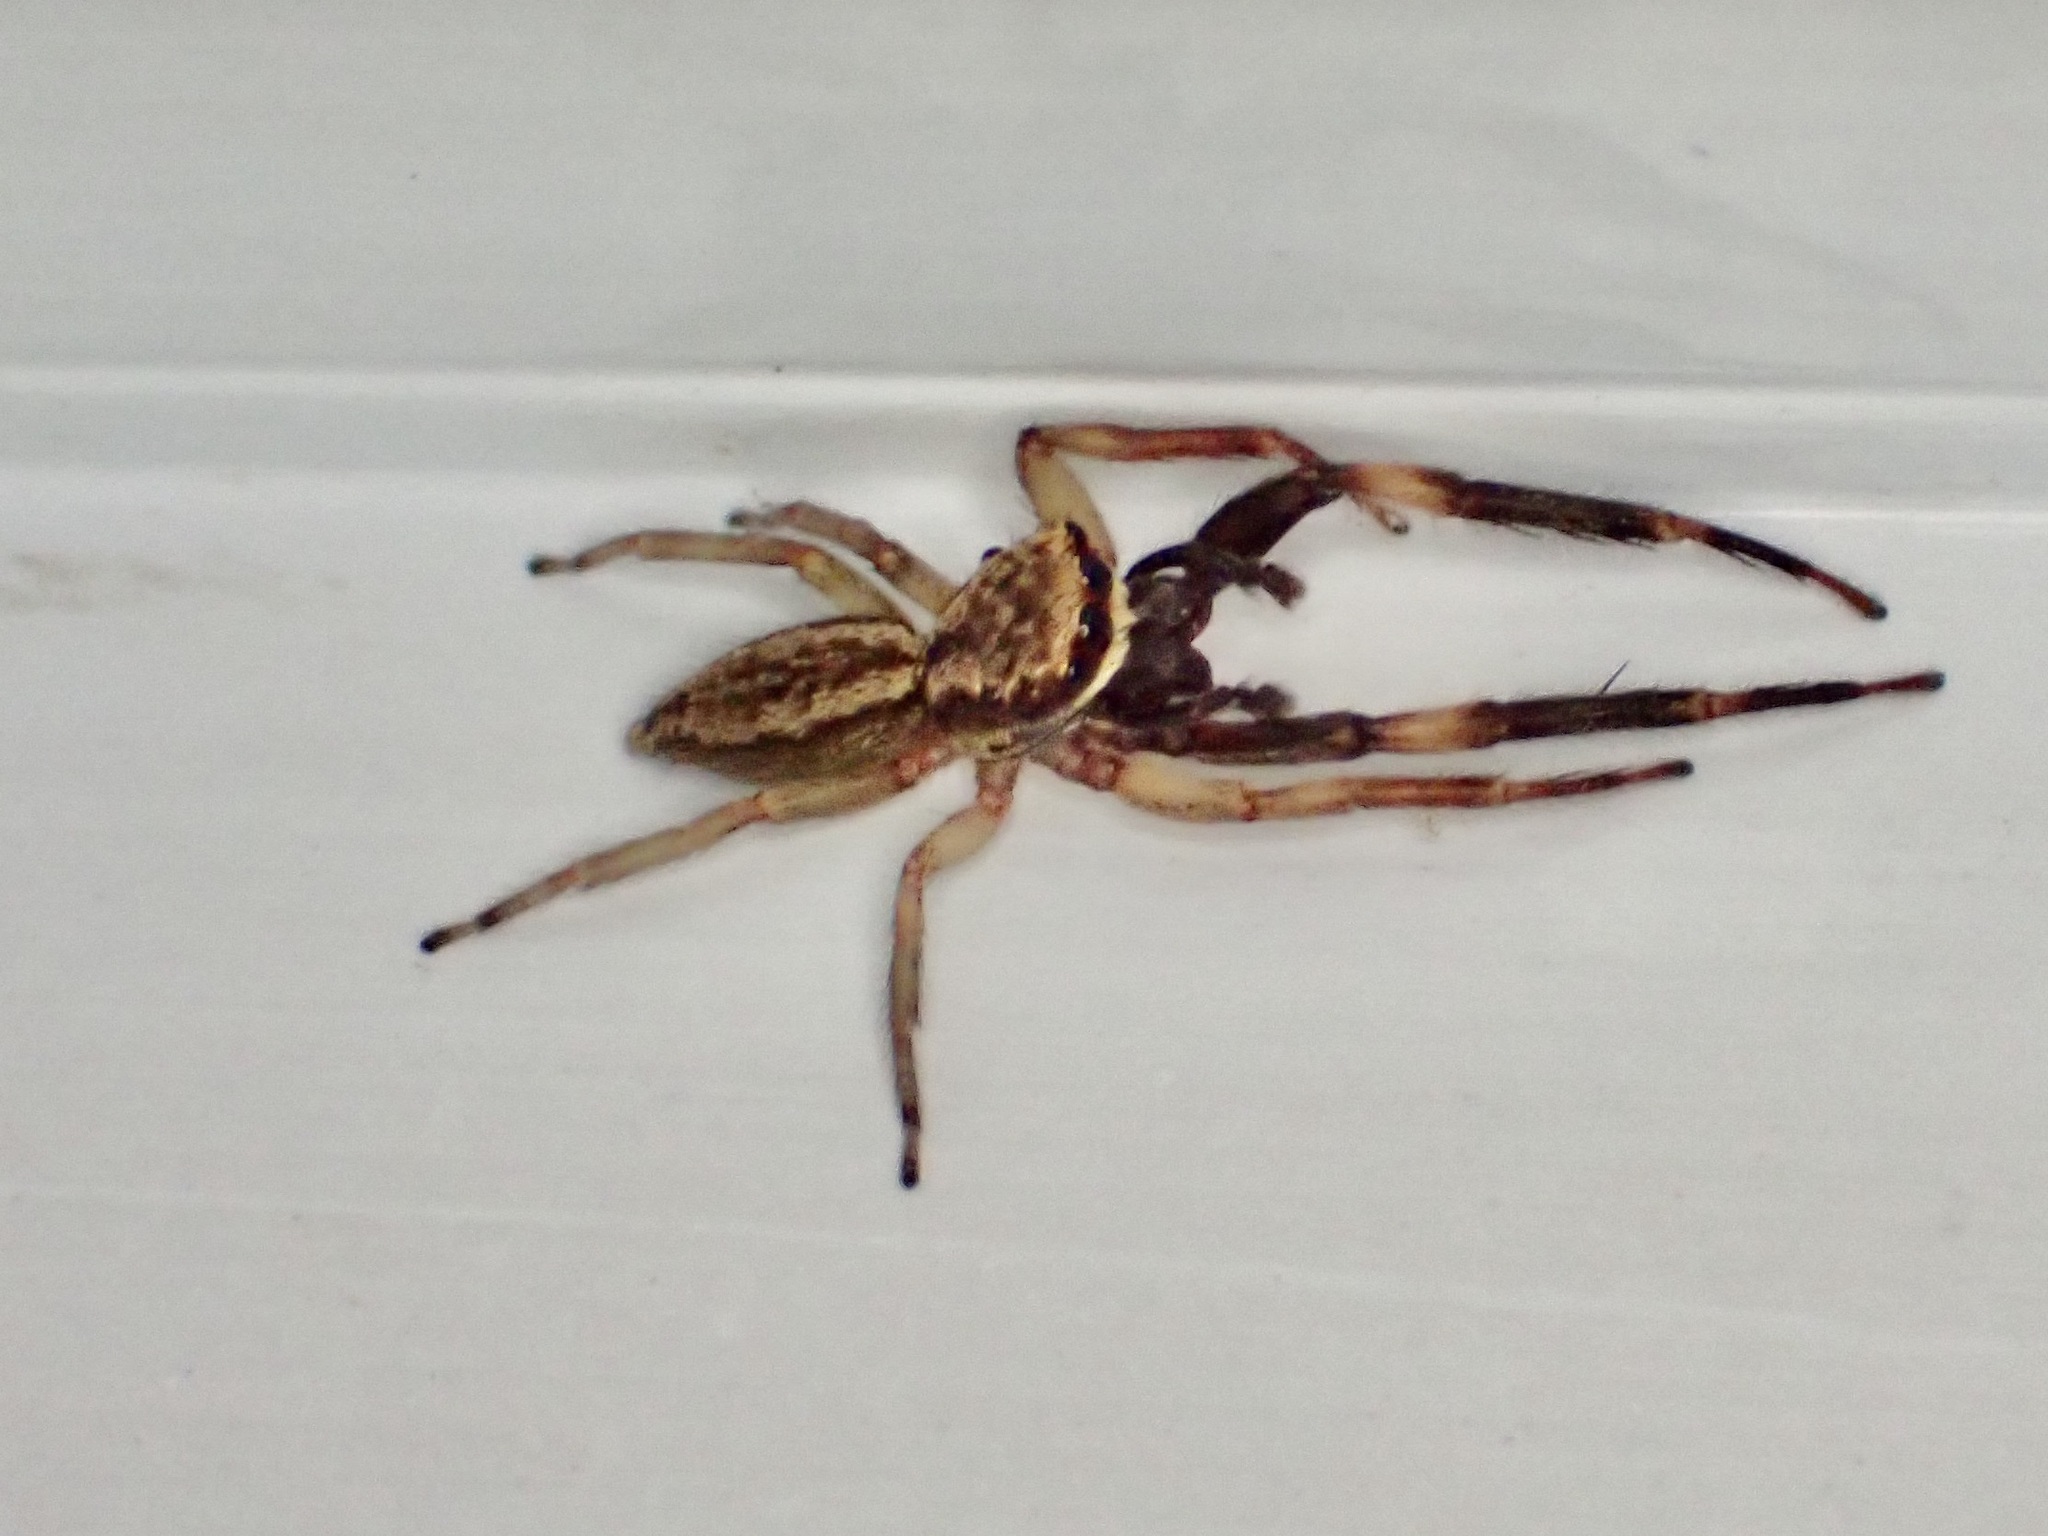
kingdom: Animalia
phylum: Arthropoda
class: Arachnida
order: Araneae
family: Salticidae
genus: Trite
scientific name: Trite auricoma
